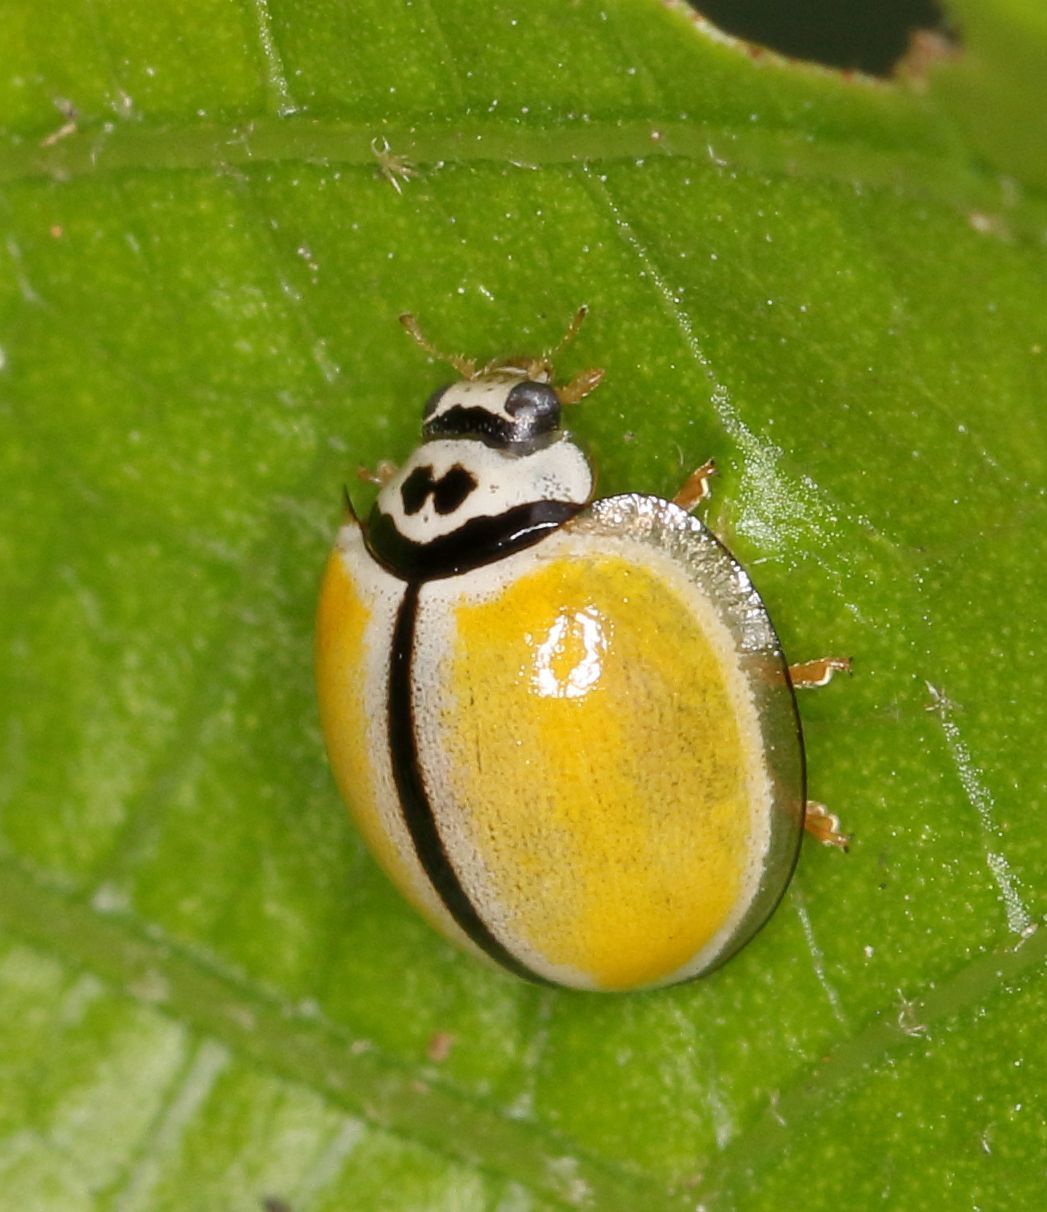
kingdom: Animalia
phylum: Arthropoda
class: Insecta
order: Coleoptera
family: Coccinellidae
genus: Oenopia
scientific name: Oenopia
